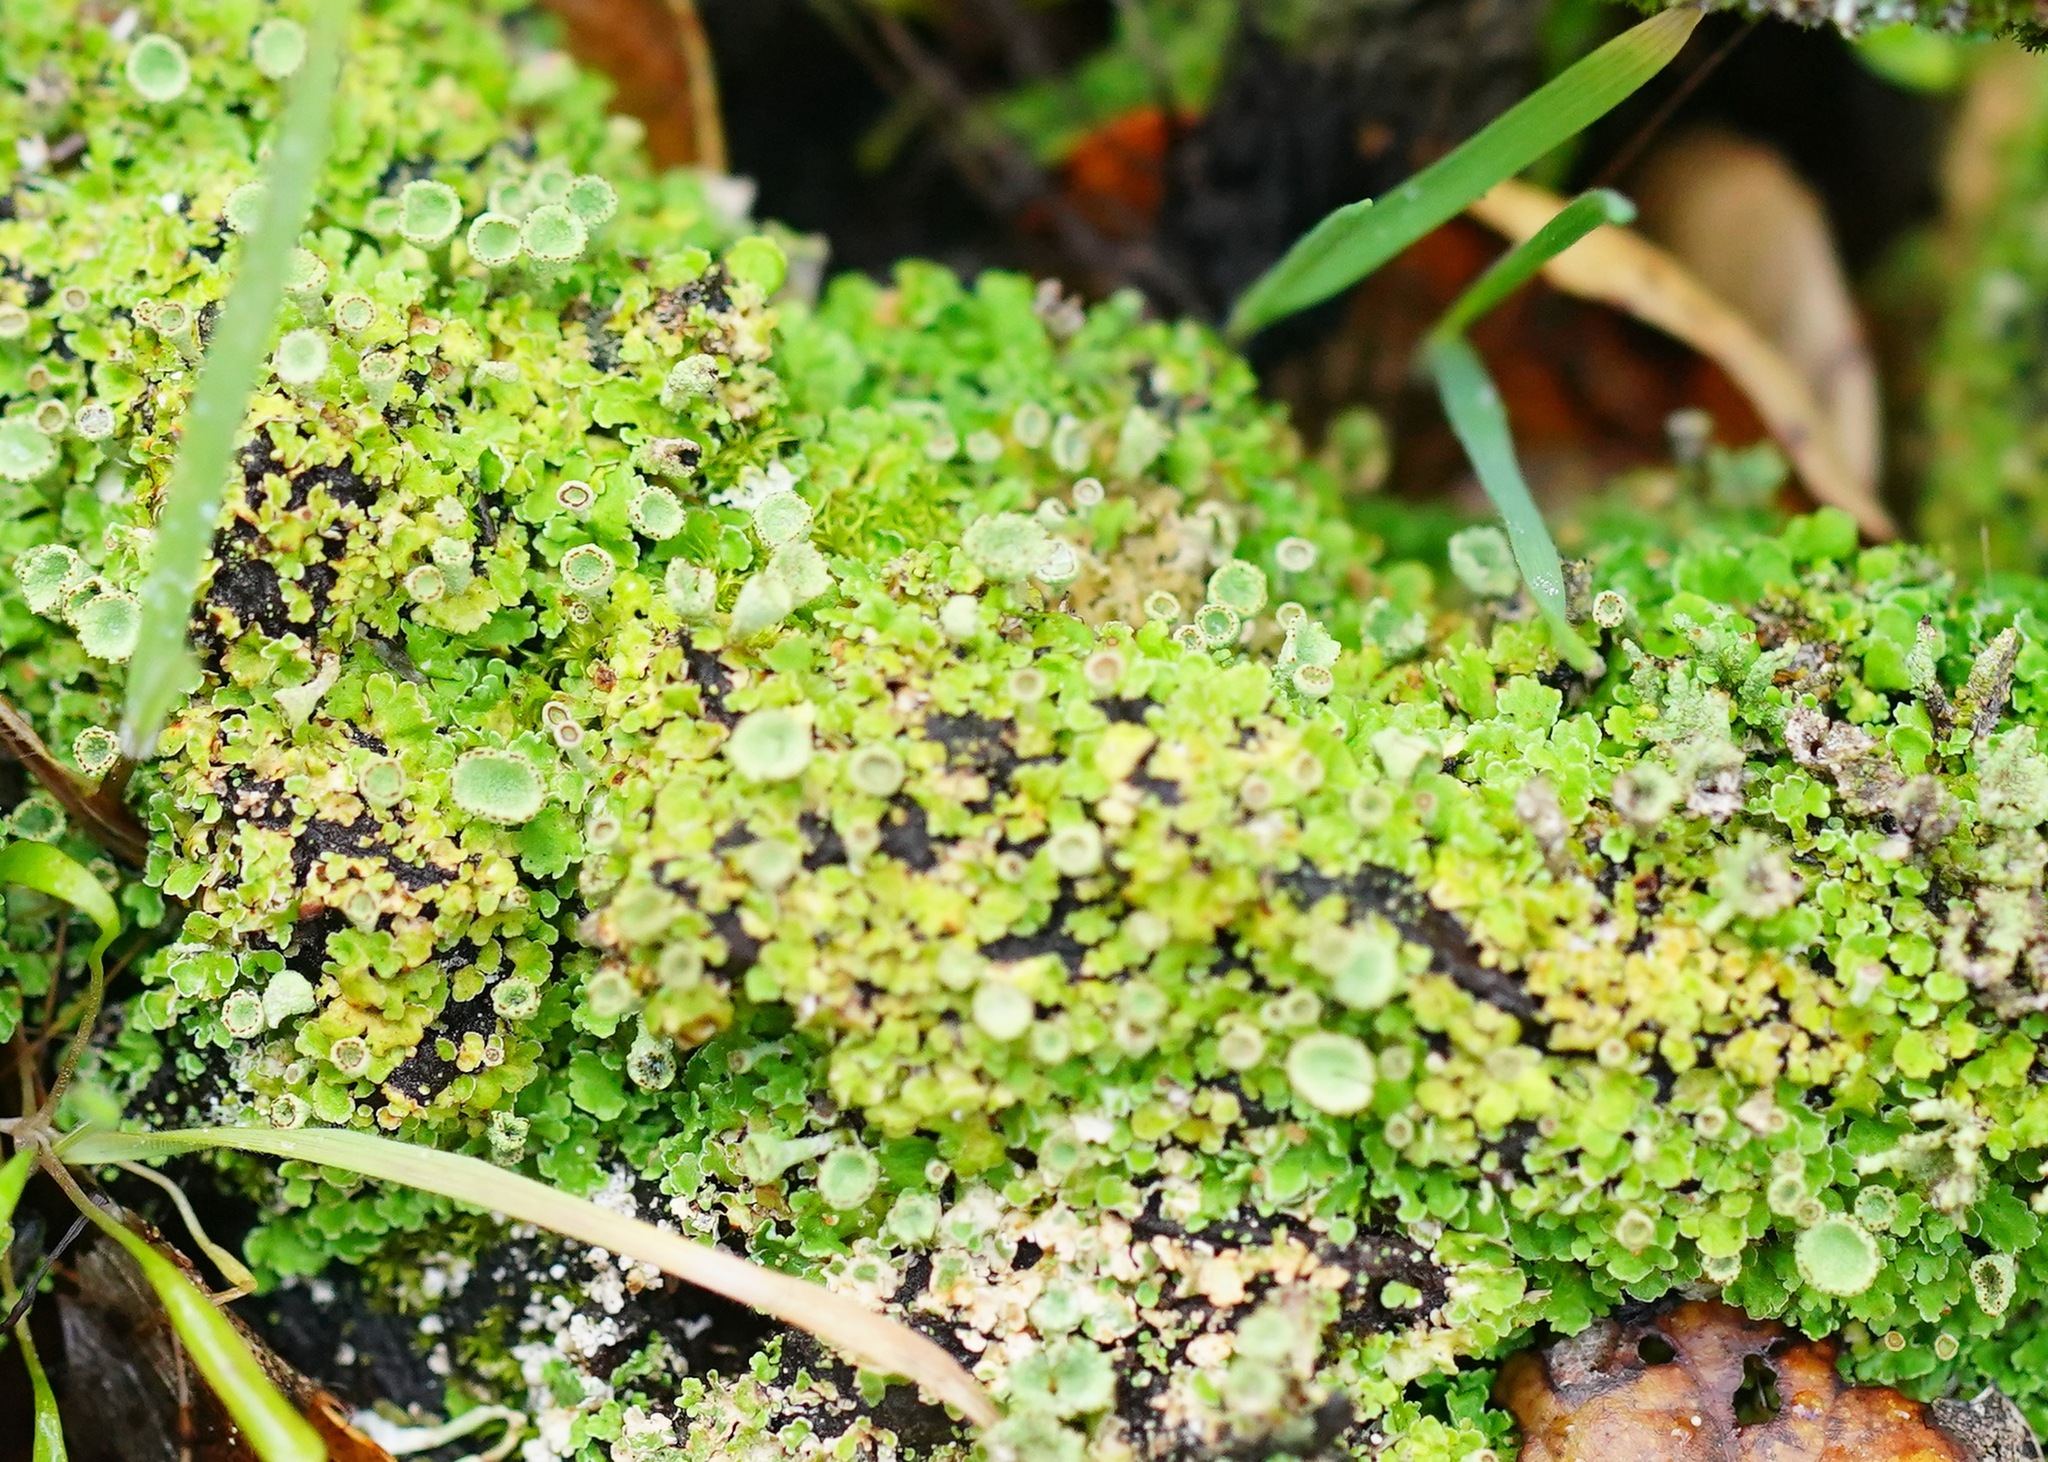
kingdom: Fungi
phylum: Ascomycota
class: Lecanoromycetes
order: Lecanorales
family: Cladoniaceae
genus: Cladonia
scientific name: Cladonia chlorophaea
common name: Mealy pixie cup
